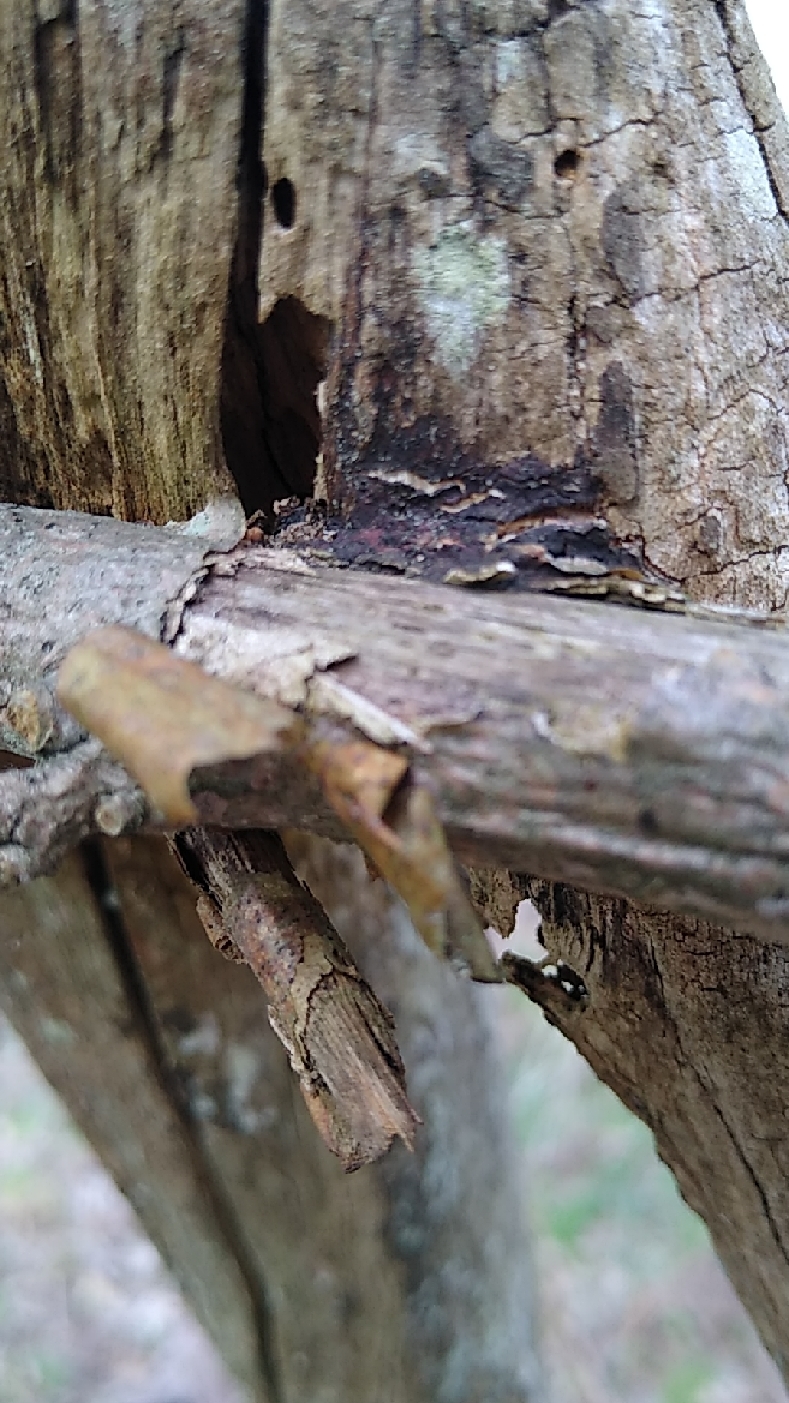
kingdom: Fungi
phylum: Basidiomycota
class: Agaricomycetes
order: Hymenochaetales
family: Hymenochaetaceae
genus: Hydnoporia
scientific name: Hydnoporia diffissa
